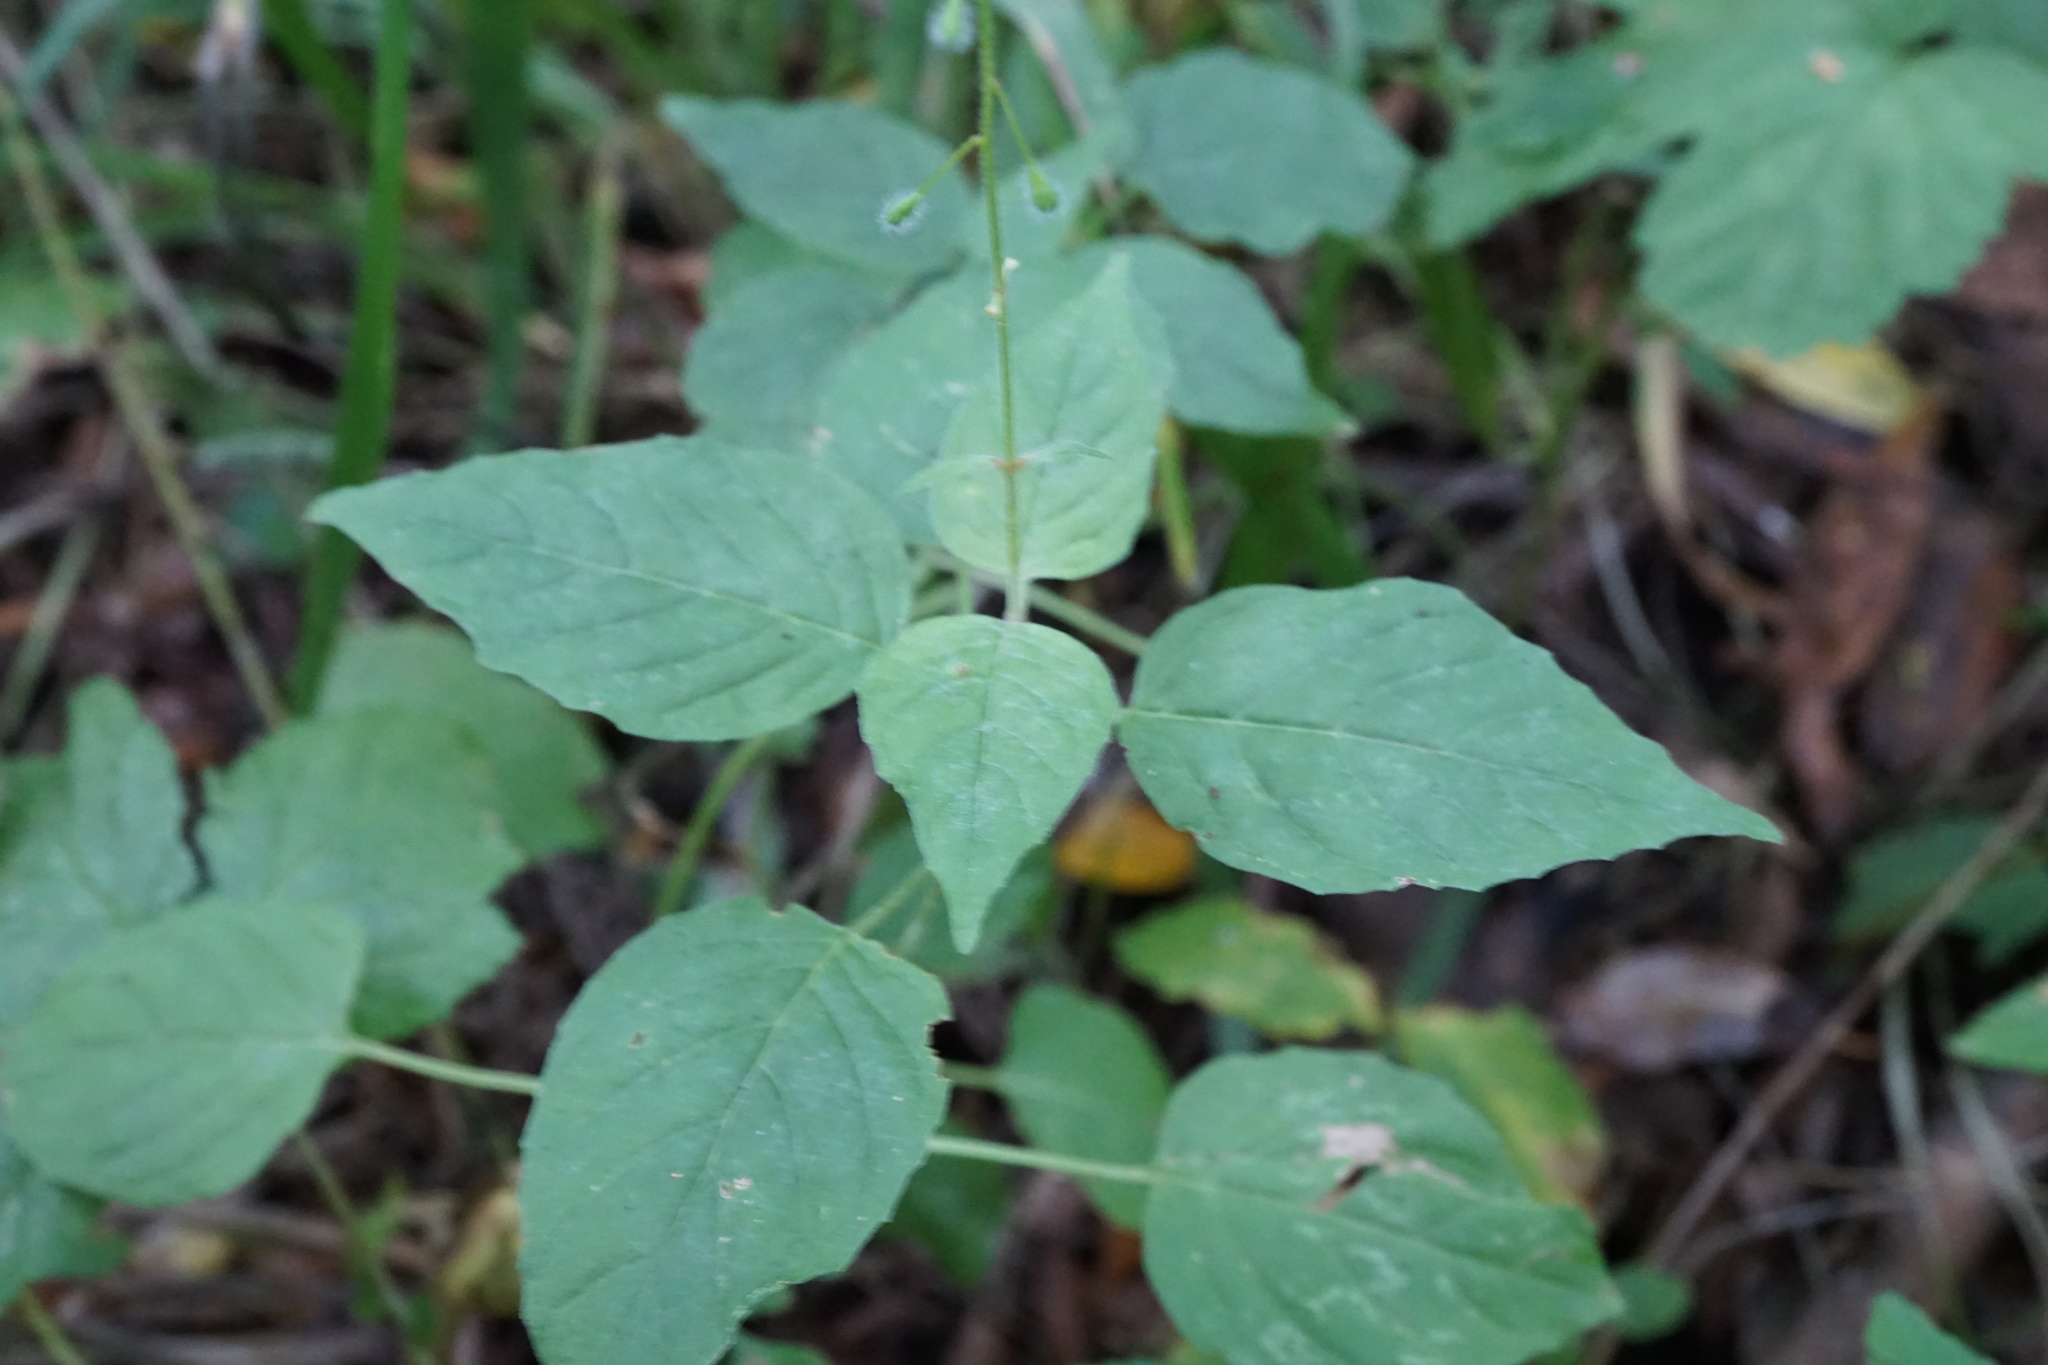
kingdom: Plantae
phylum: Tracheophyta
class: Magnoliopsida
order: Myrtales
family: Onagraceae
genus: Circaea
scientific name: Circaea lutetiana
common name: Enchanter's-nightshade
